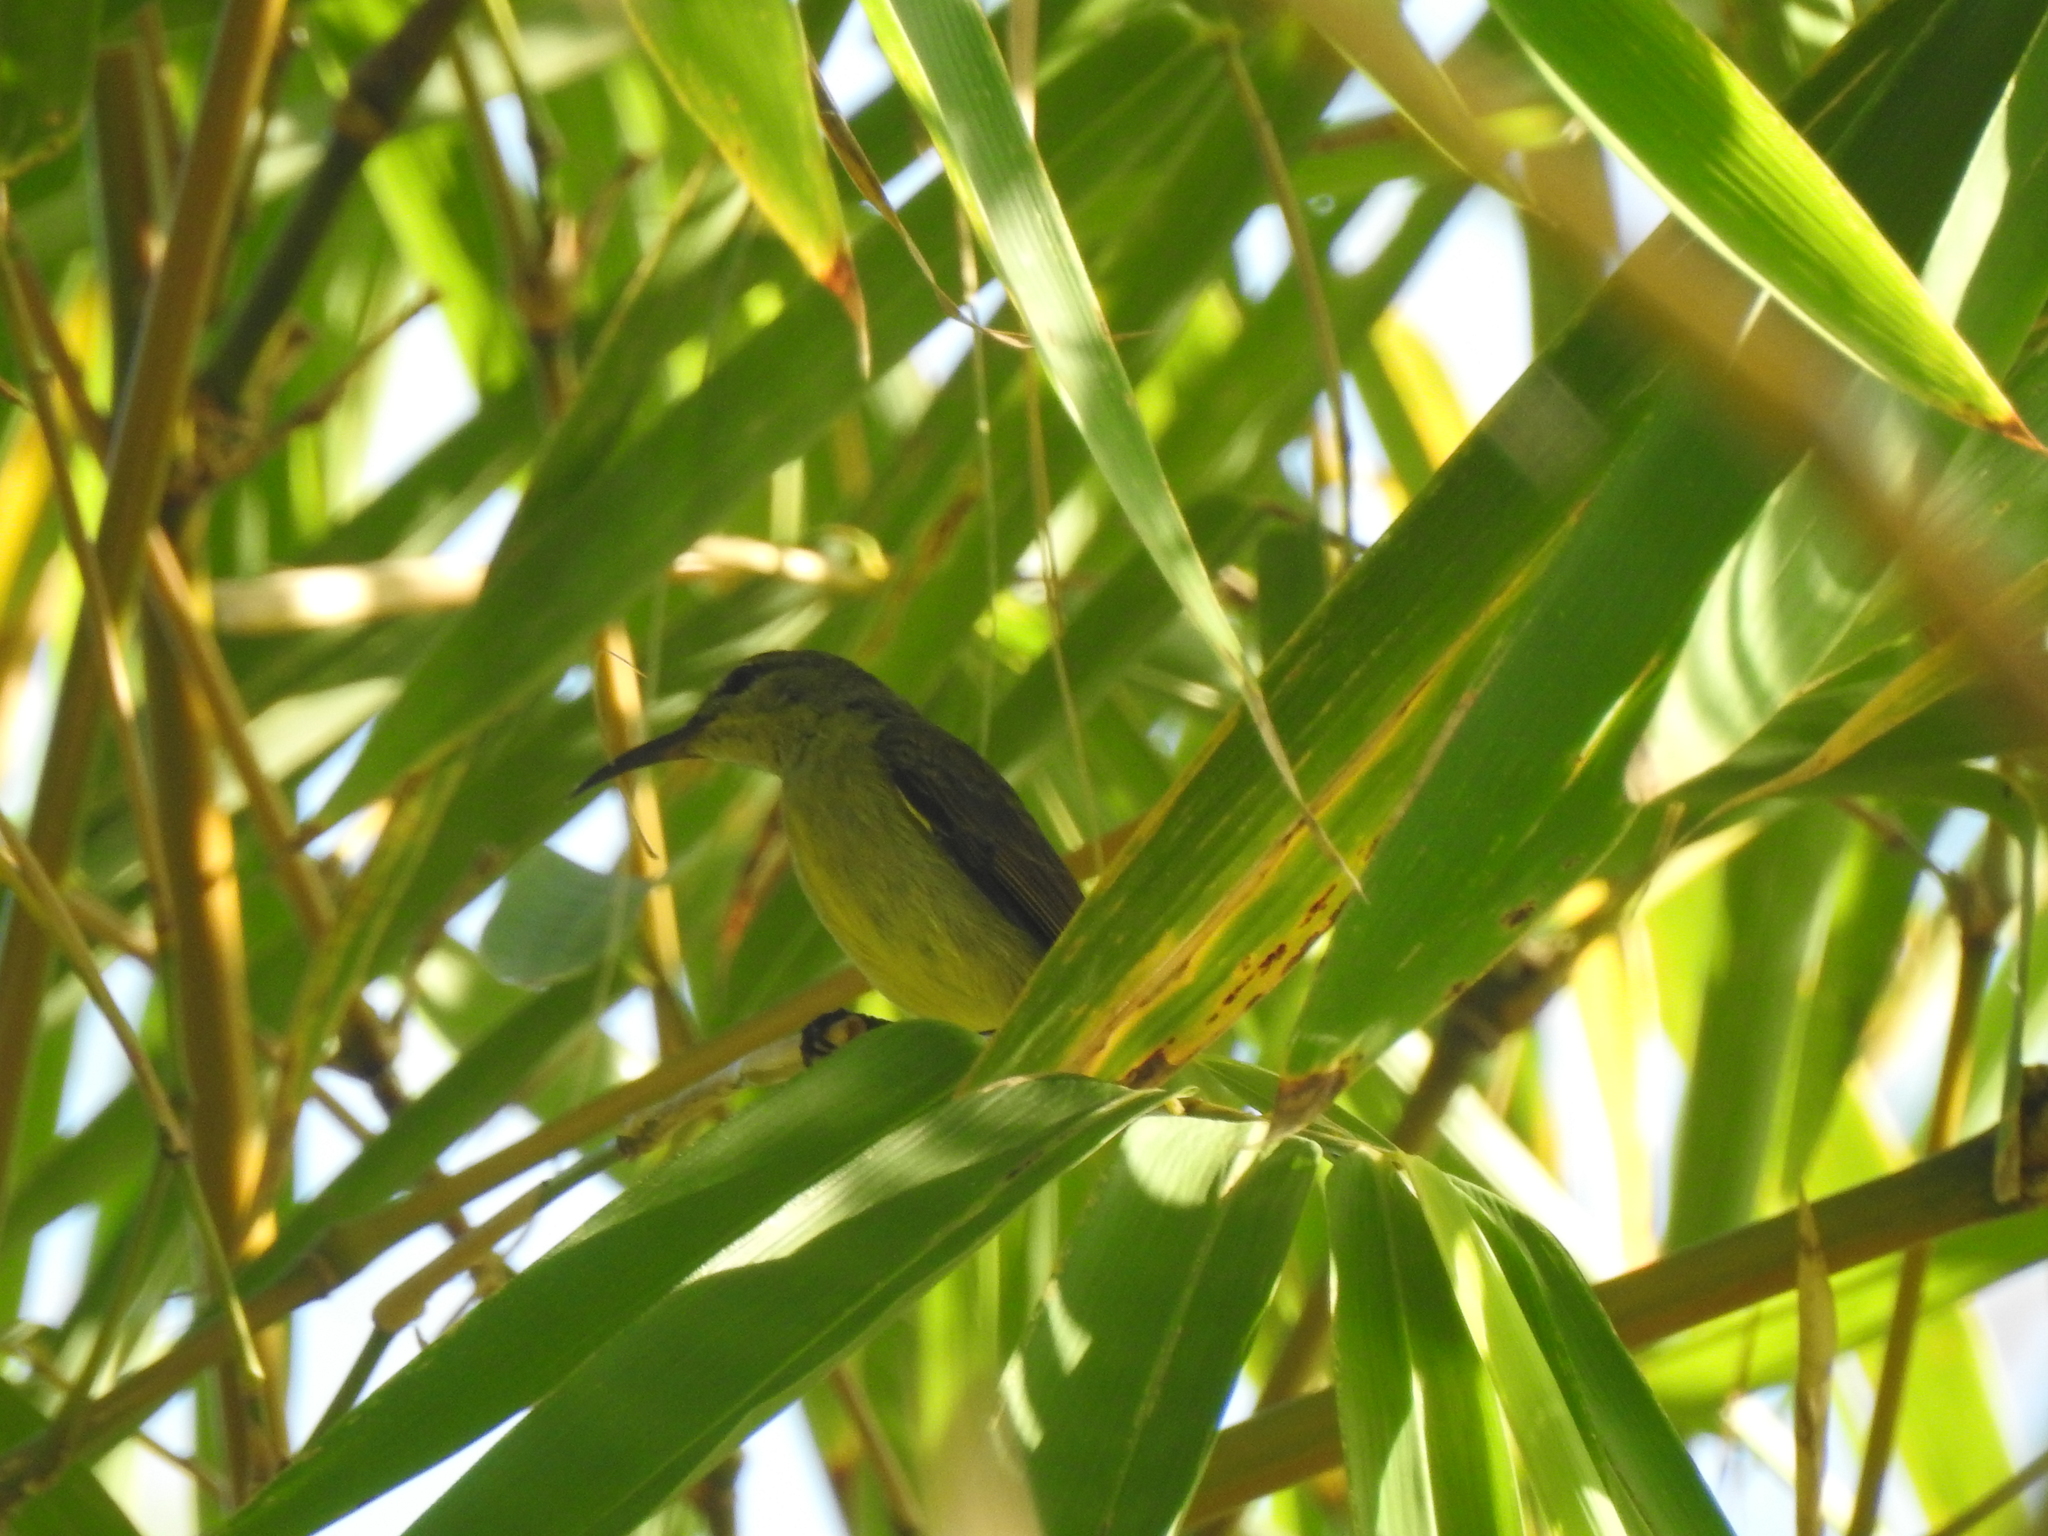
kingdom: Animalia
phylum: Chordata
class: Aves
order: Passeriformes
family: Nectariniidae
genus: Leptocoma
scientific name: Leptocoma sperata
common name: Purple-throated sunbird
